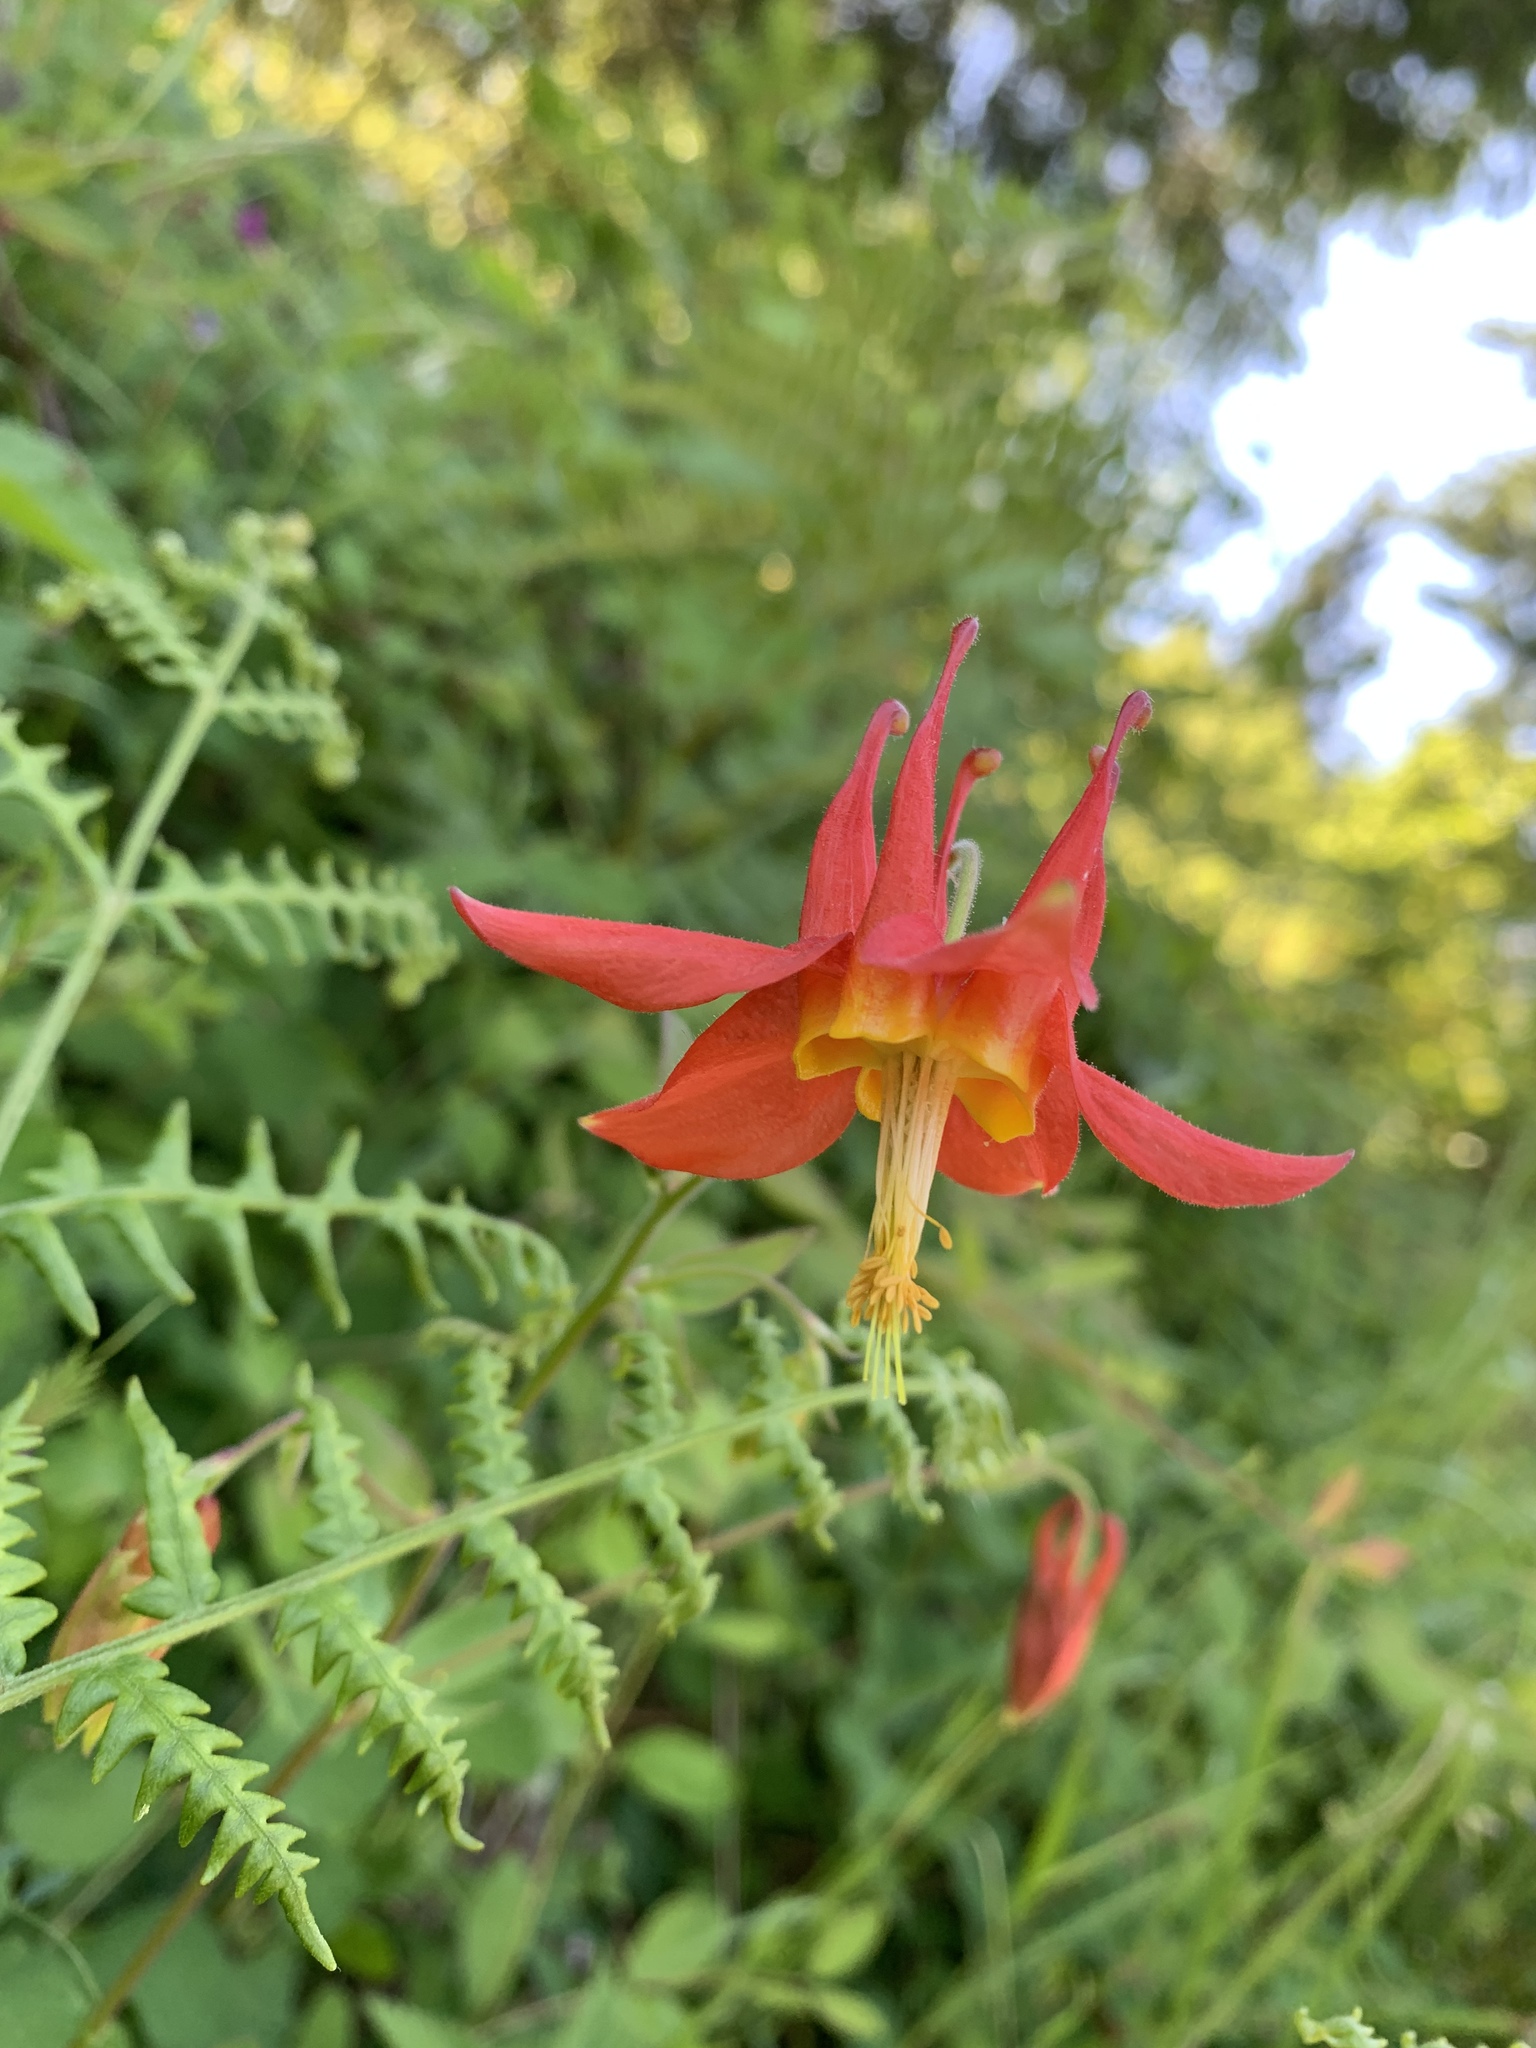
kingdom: Plantae
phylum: Tracheophyta
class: Magnoliopsida
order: Ranunculales
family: Ranunculaceae
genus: Aquilegia
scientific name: Aquilegia formosa
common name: Sitka columbine
